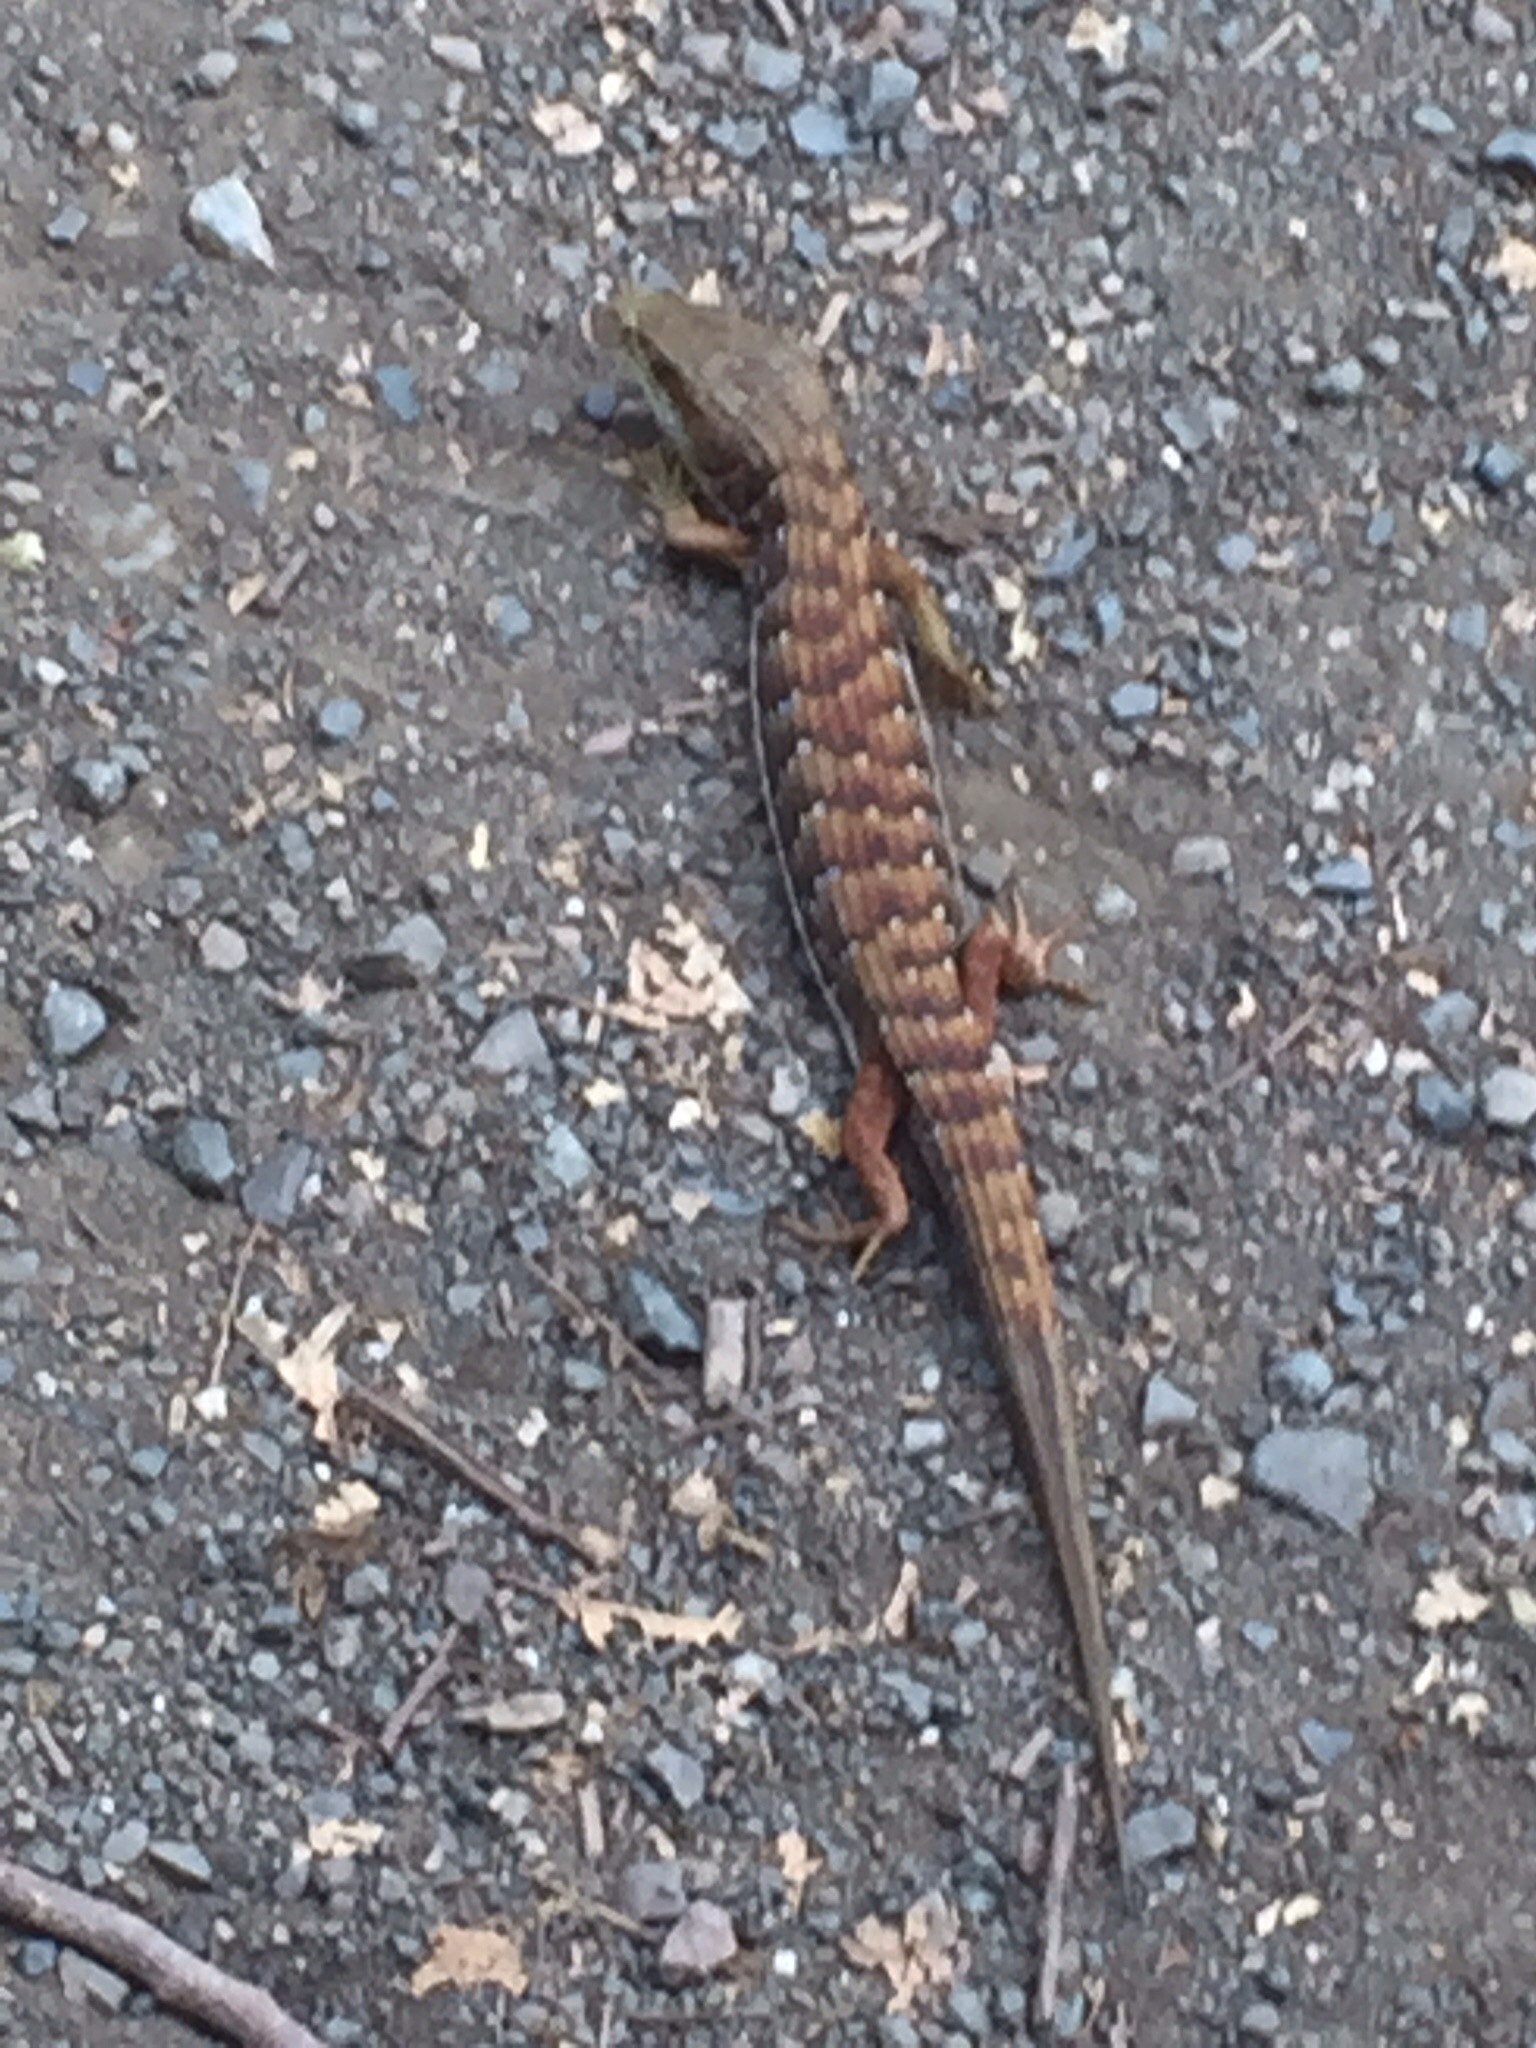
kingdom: Animalia
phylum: Chordata
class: Squamata
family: Anguidae
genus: Elgaria
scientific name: Elgaria multicarinata
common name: Southern alligator lizard
